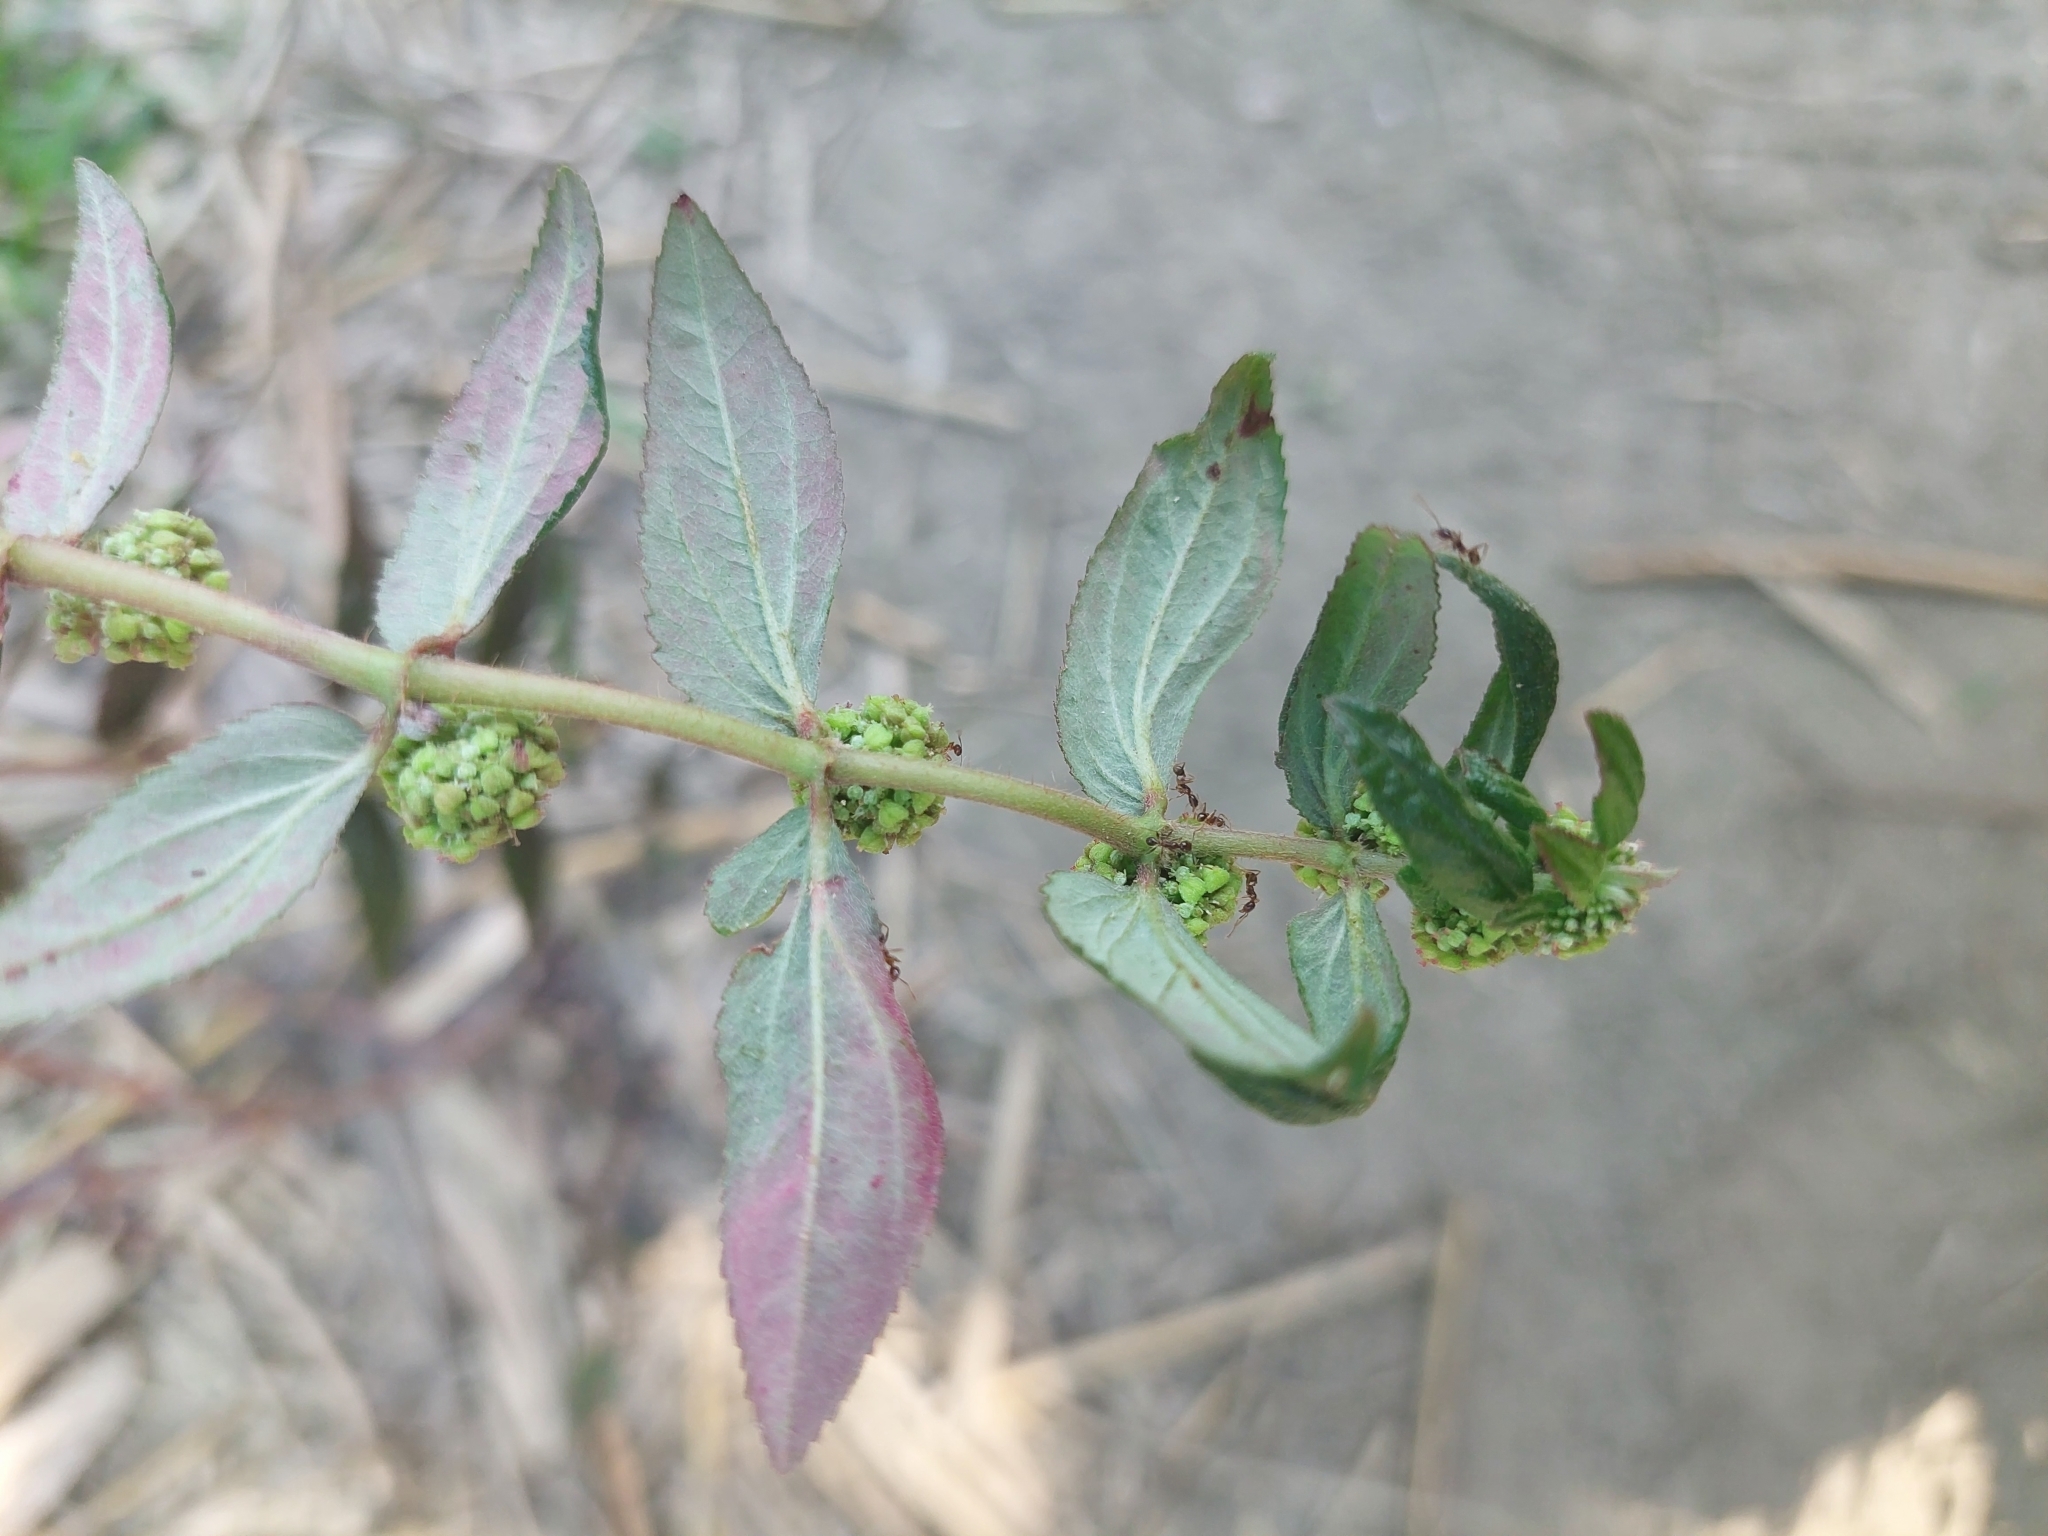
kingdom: Plantae
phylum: Tracheophyta
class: Magnoliopsida
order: Malpighiales
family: Euphorbiaceae
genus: Euphorbia
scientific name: Euphorbia hirta
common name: Pillpod sandmat
